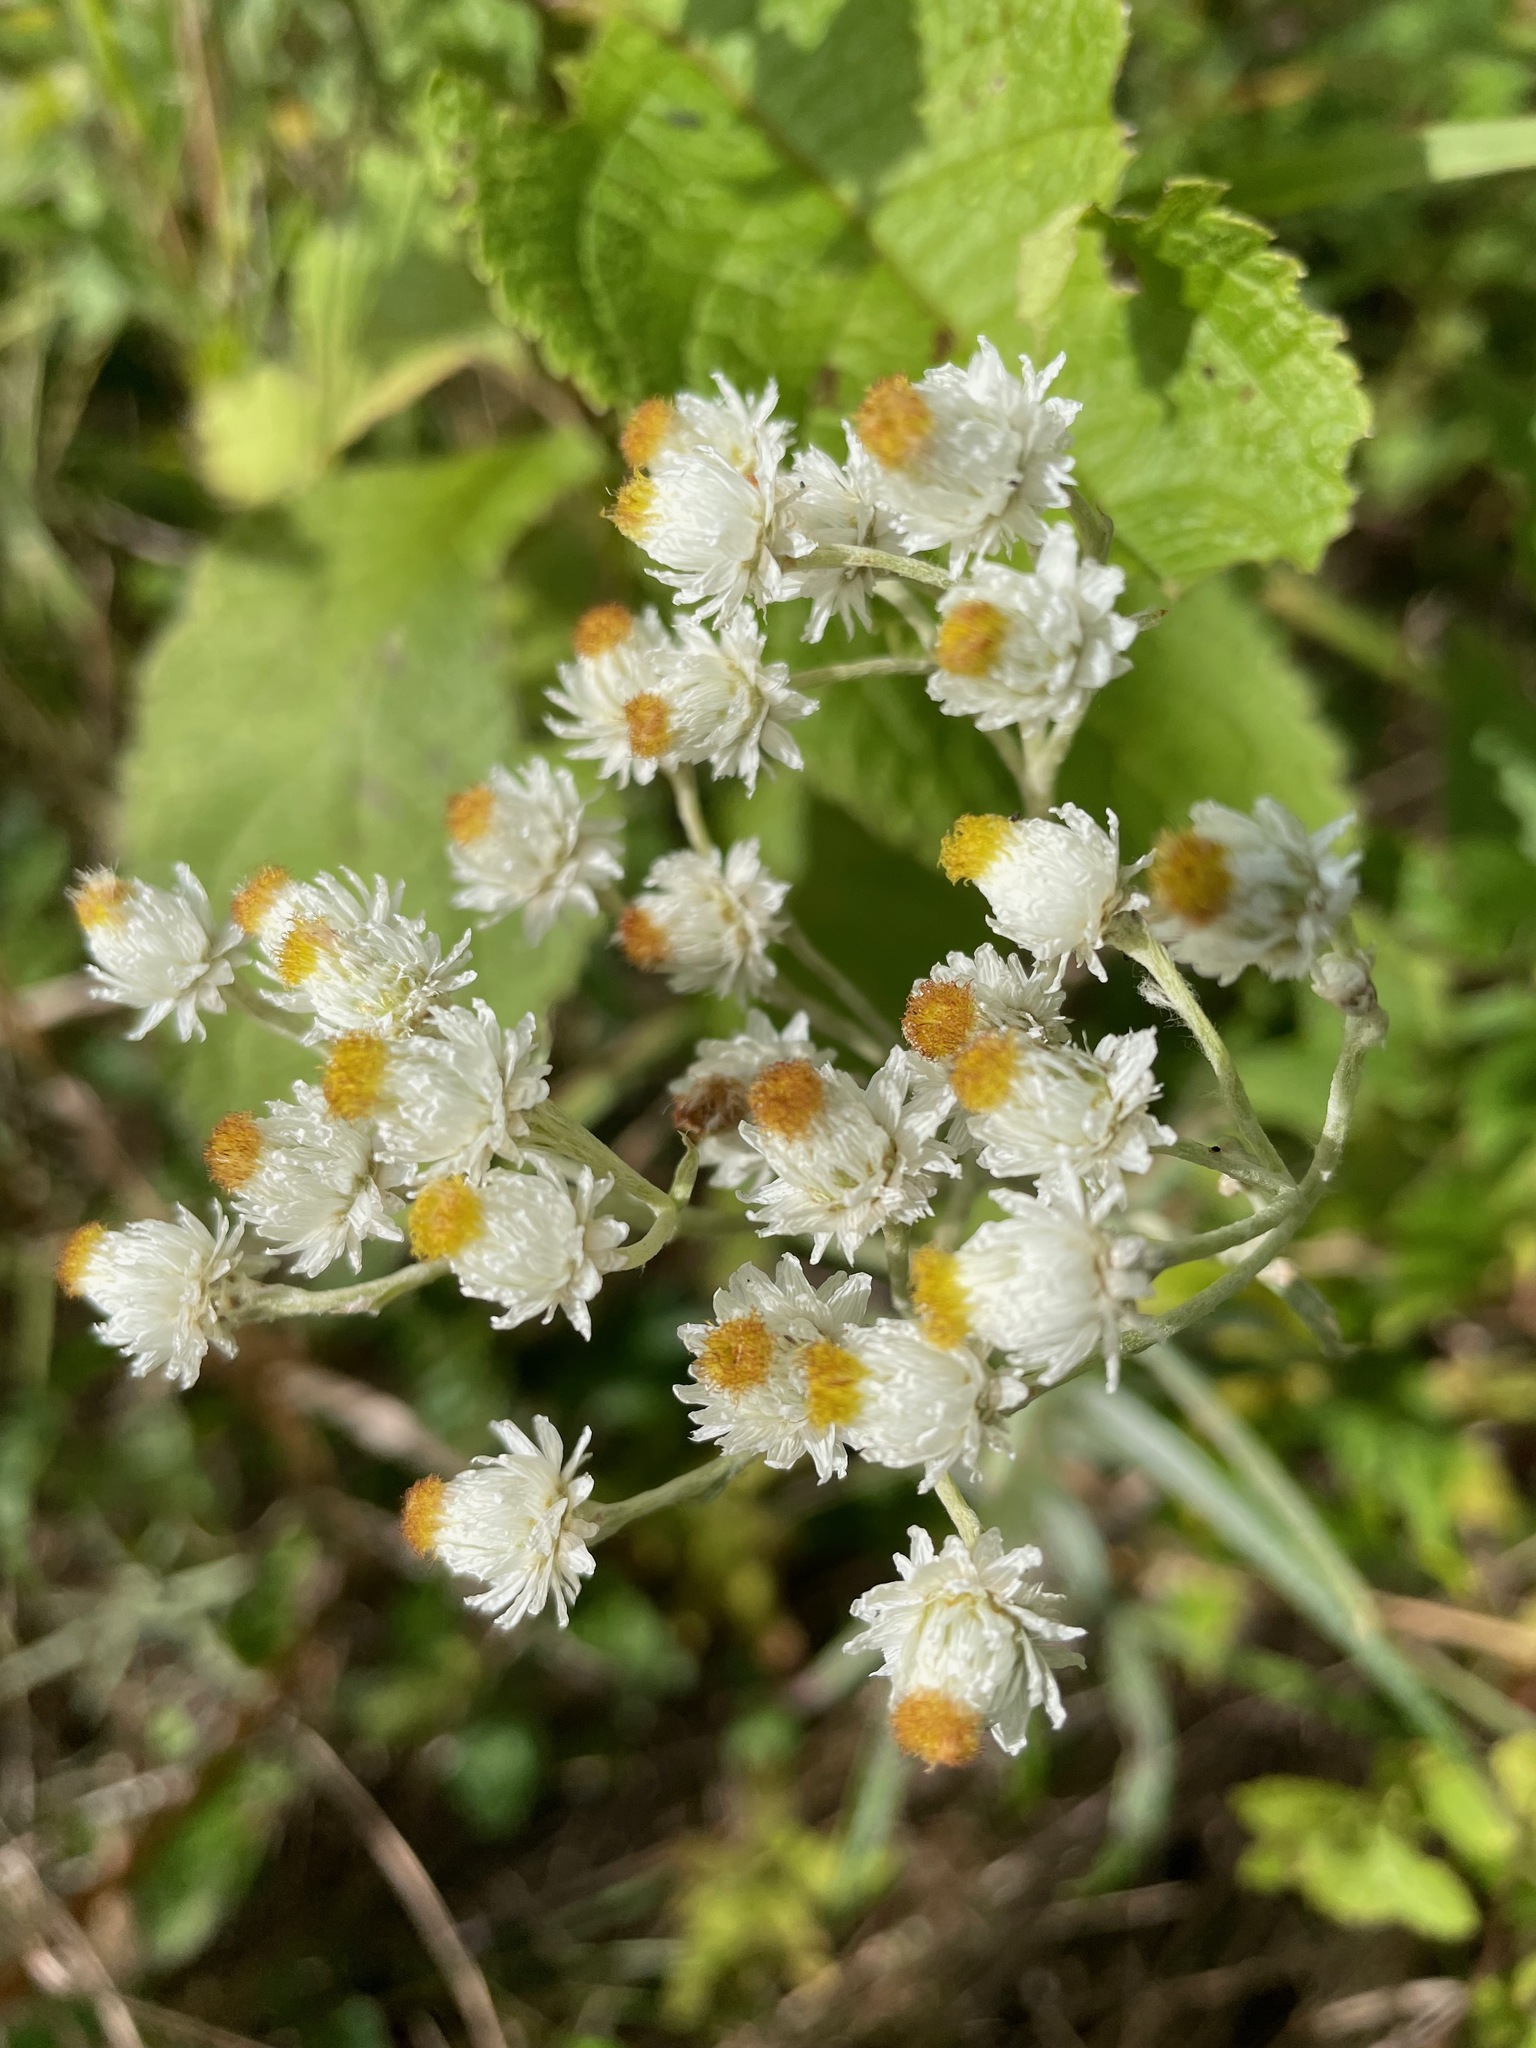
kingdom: Plantae
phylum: Tracheophyta
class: Magnoliopsida
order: Asterales
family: Asteraceae
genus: Anaphalis
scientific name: Anaphalis margaritacea
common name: Pearly everlasting
